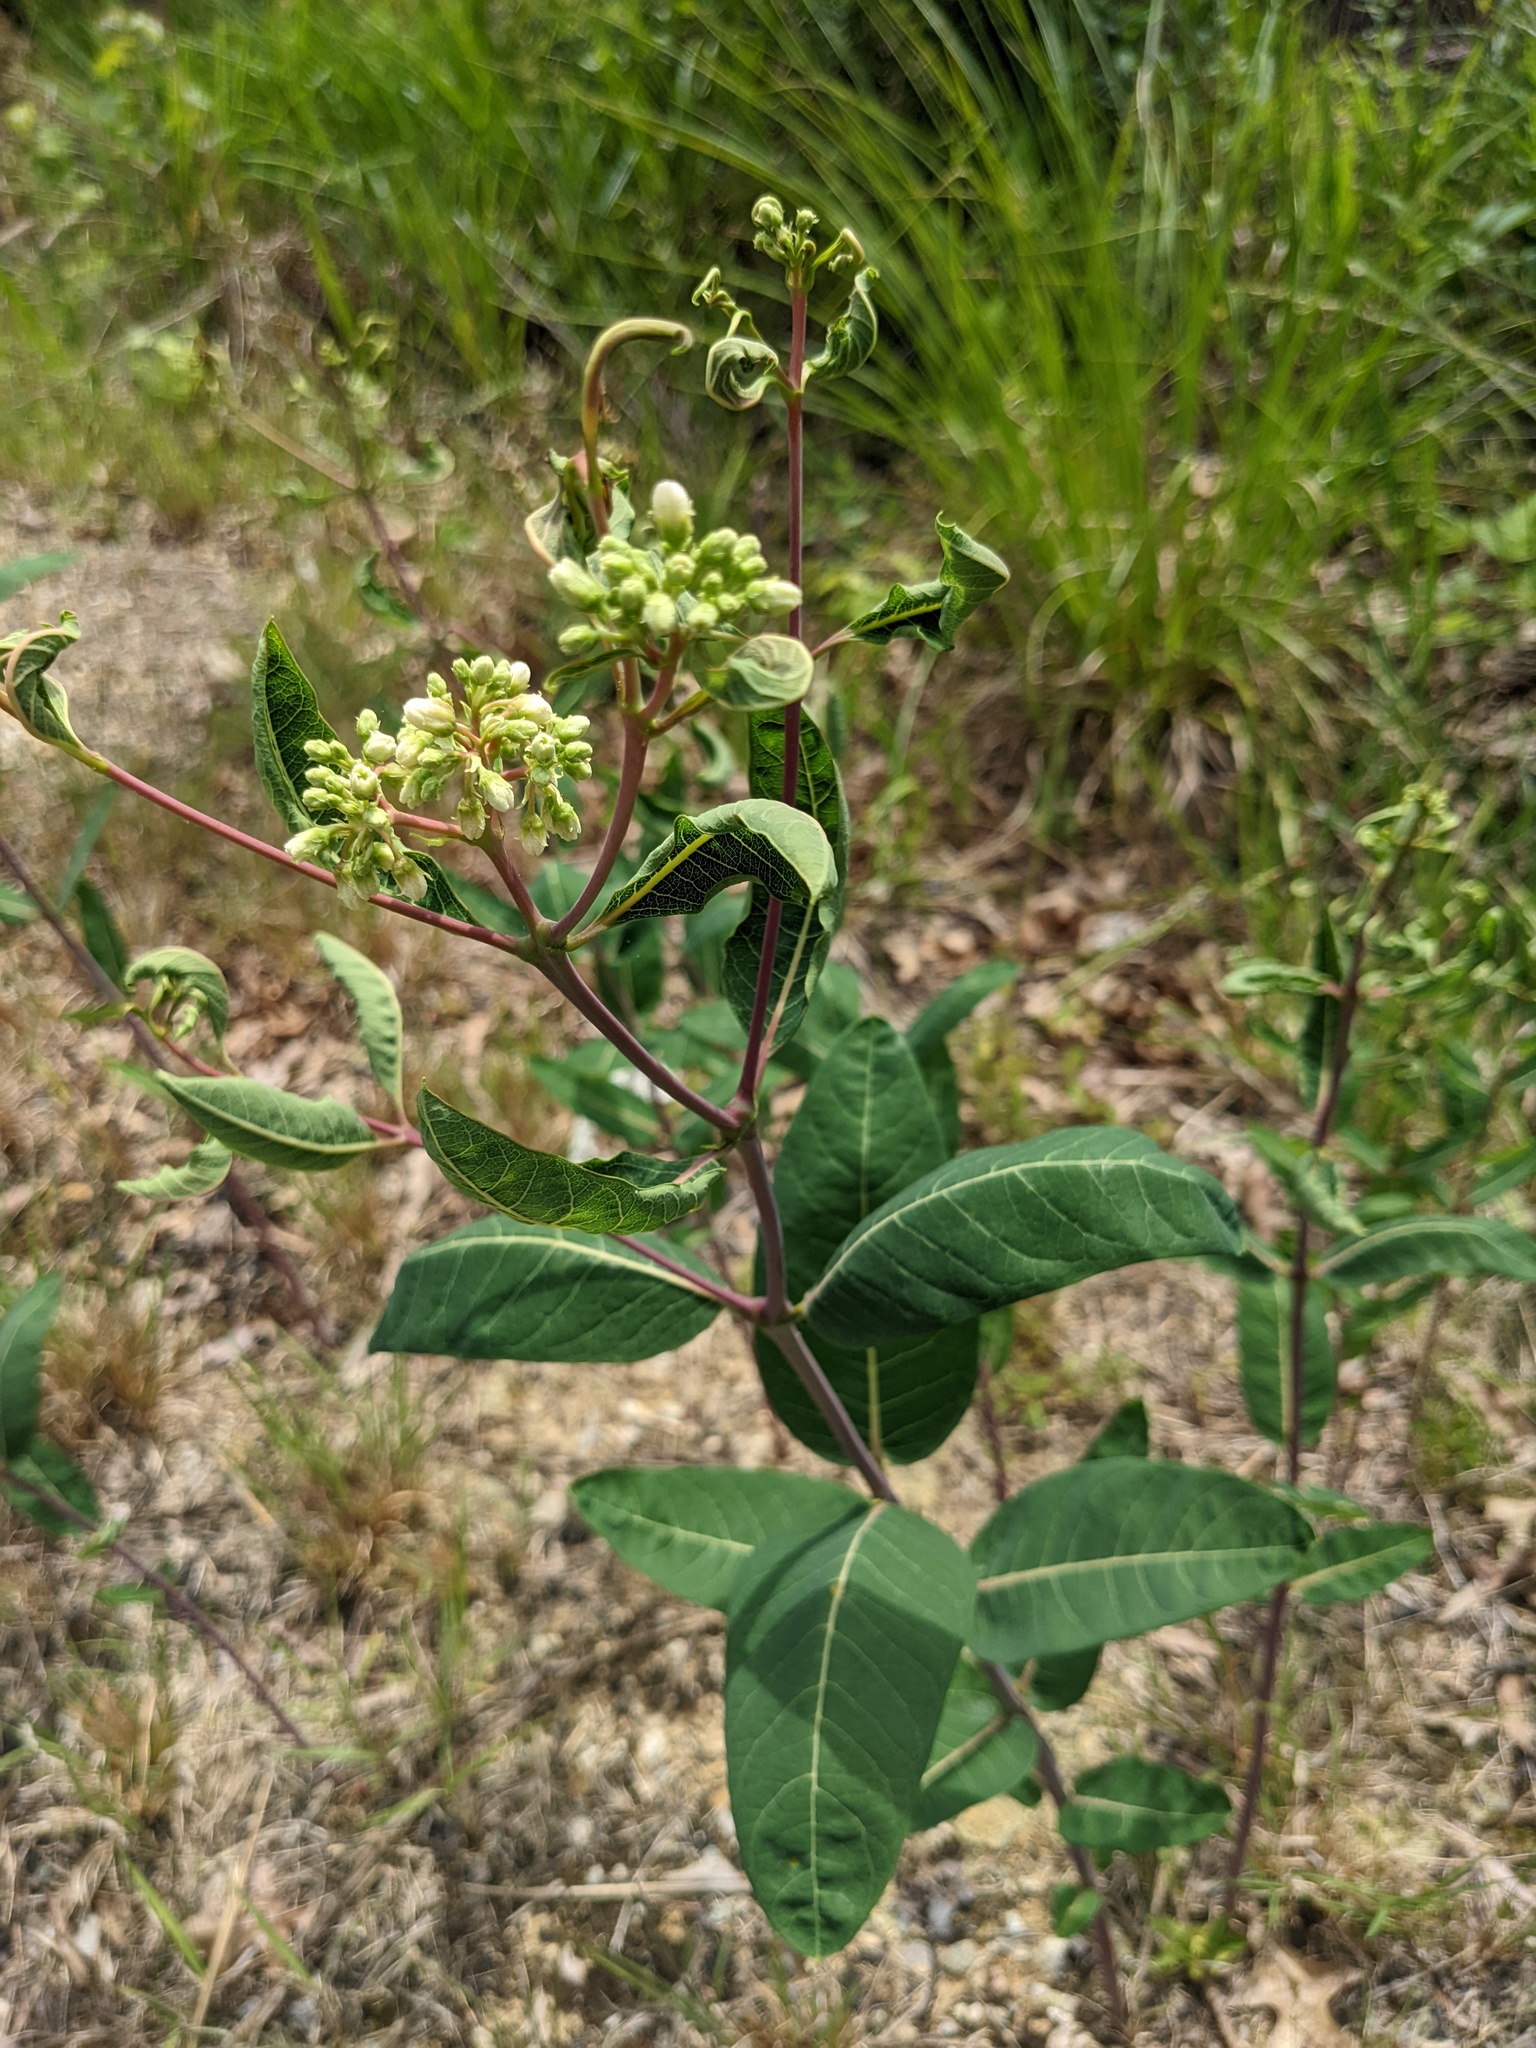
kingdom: Plantae
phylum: Tracheophyta
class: Magnoliopsida
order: Gentianales
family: Apocynaceae
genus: Apocynum
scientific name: Apocynum cannabinum
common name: Hemp dogbane
